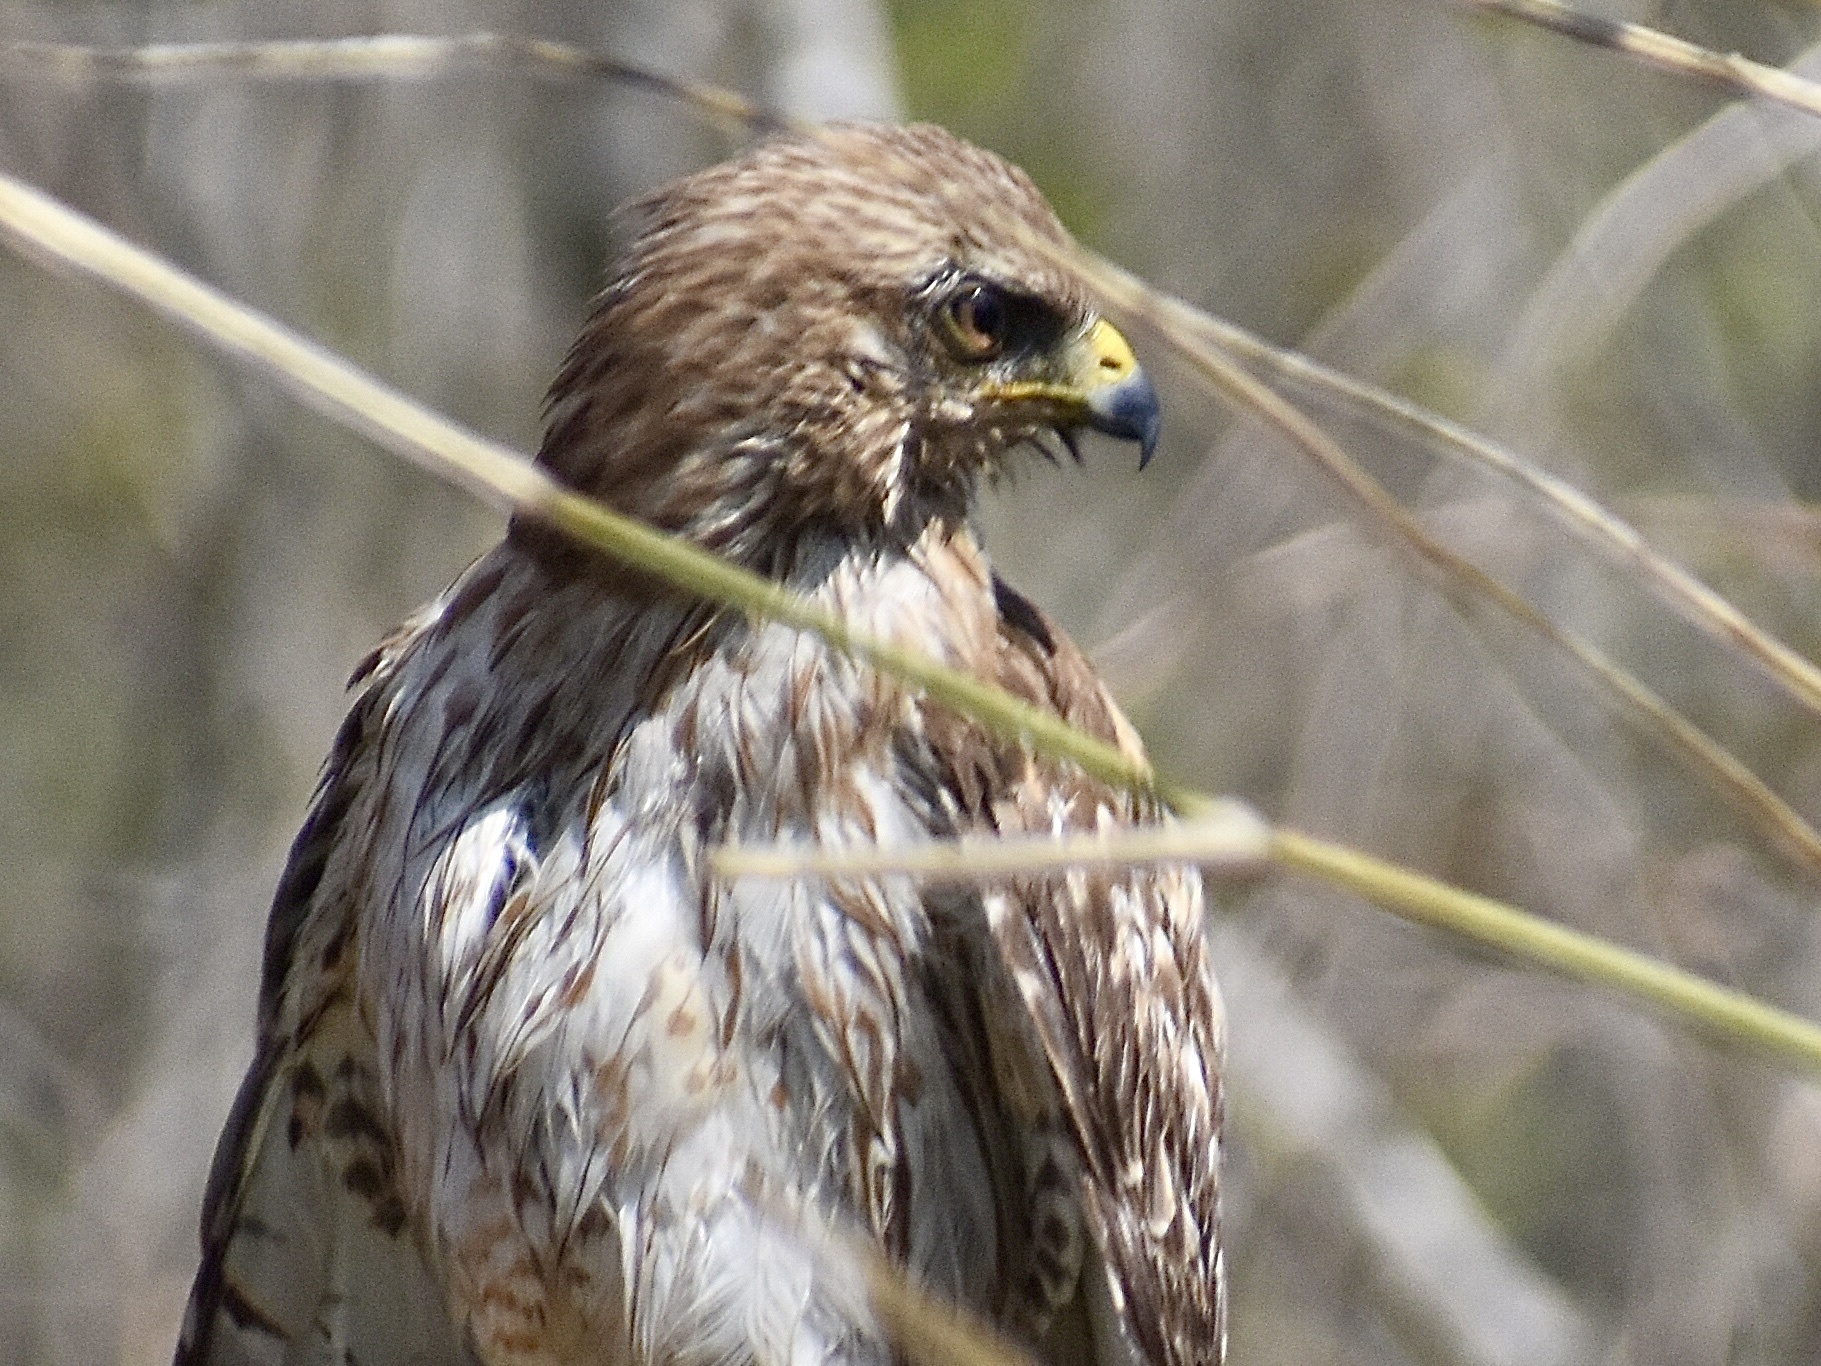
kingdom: Animalia
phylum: Chordata
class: Aves
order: Accipitriformes
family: Accipitridae
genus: Buteo
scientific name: Buteo lineatus
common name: Red-shouldered hawk
